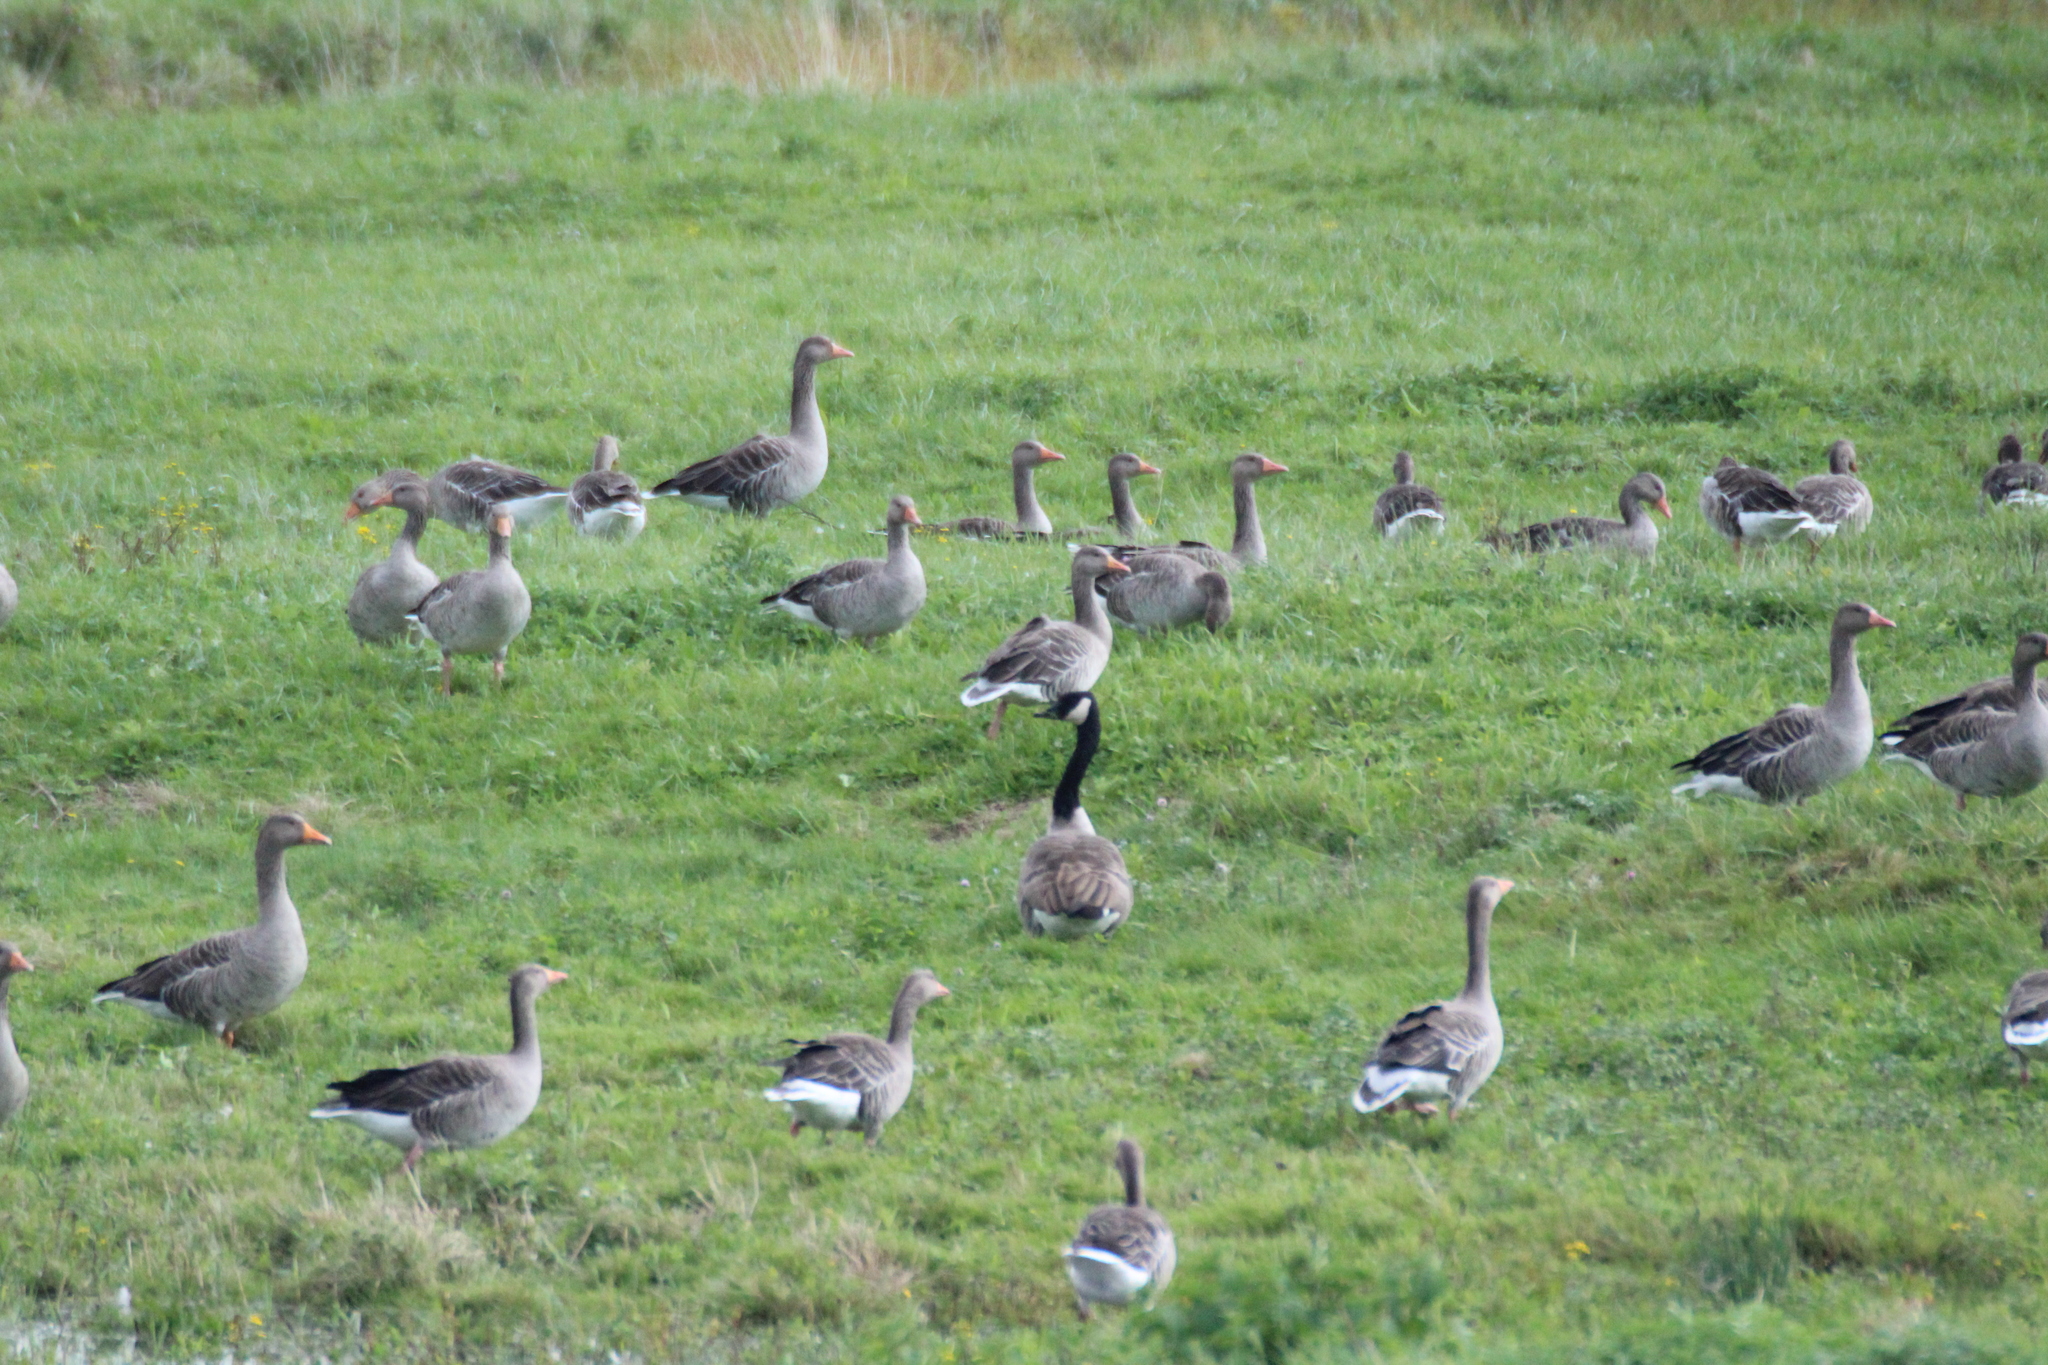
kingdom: Animalia
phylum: Chordata
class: Aves
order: Anseriformes
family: Anatidae
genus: Branta
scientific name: Branta canadensis
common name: Canada goose
